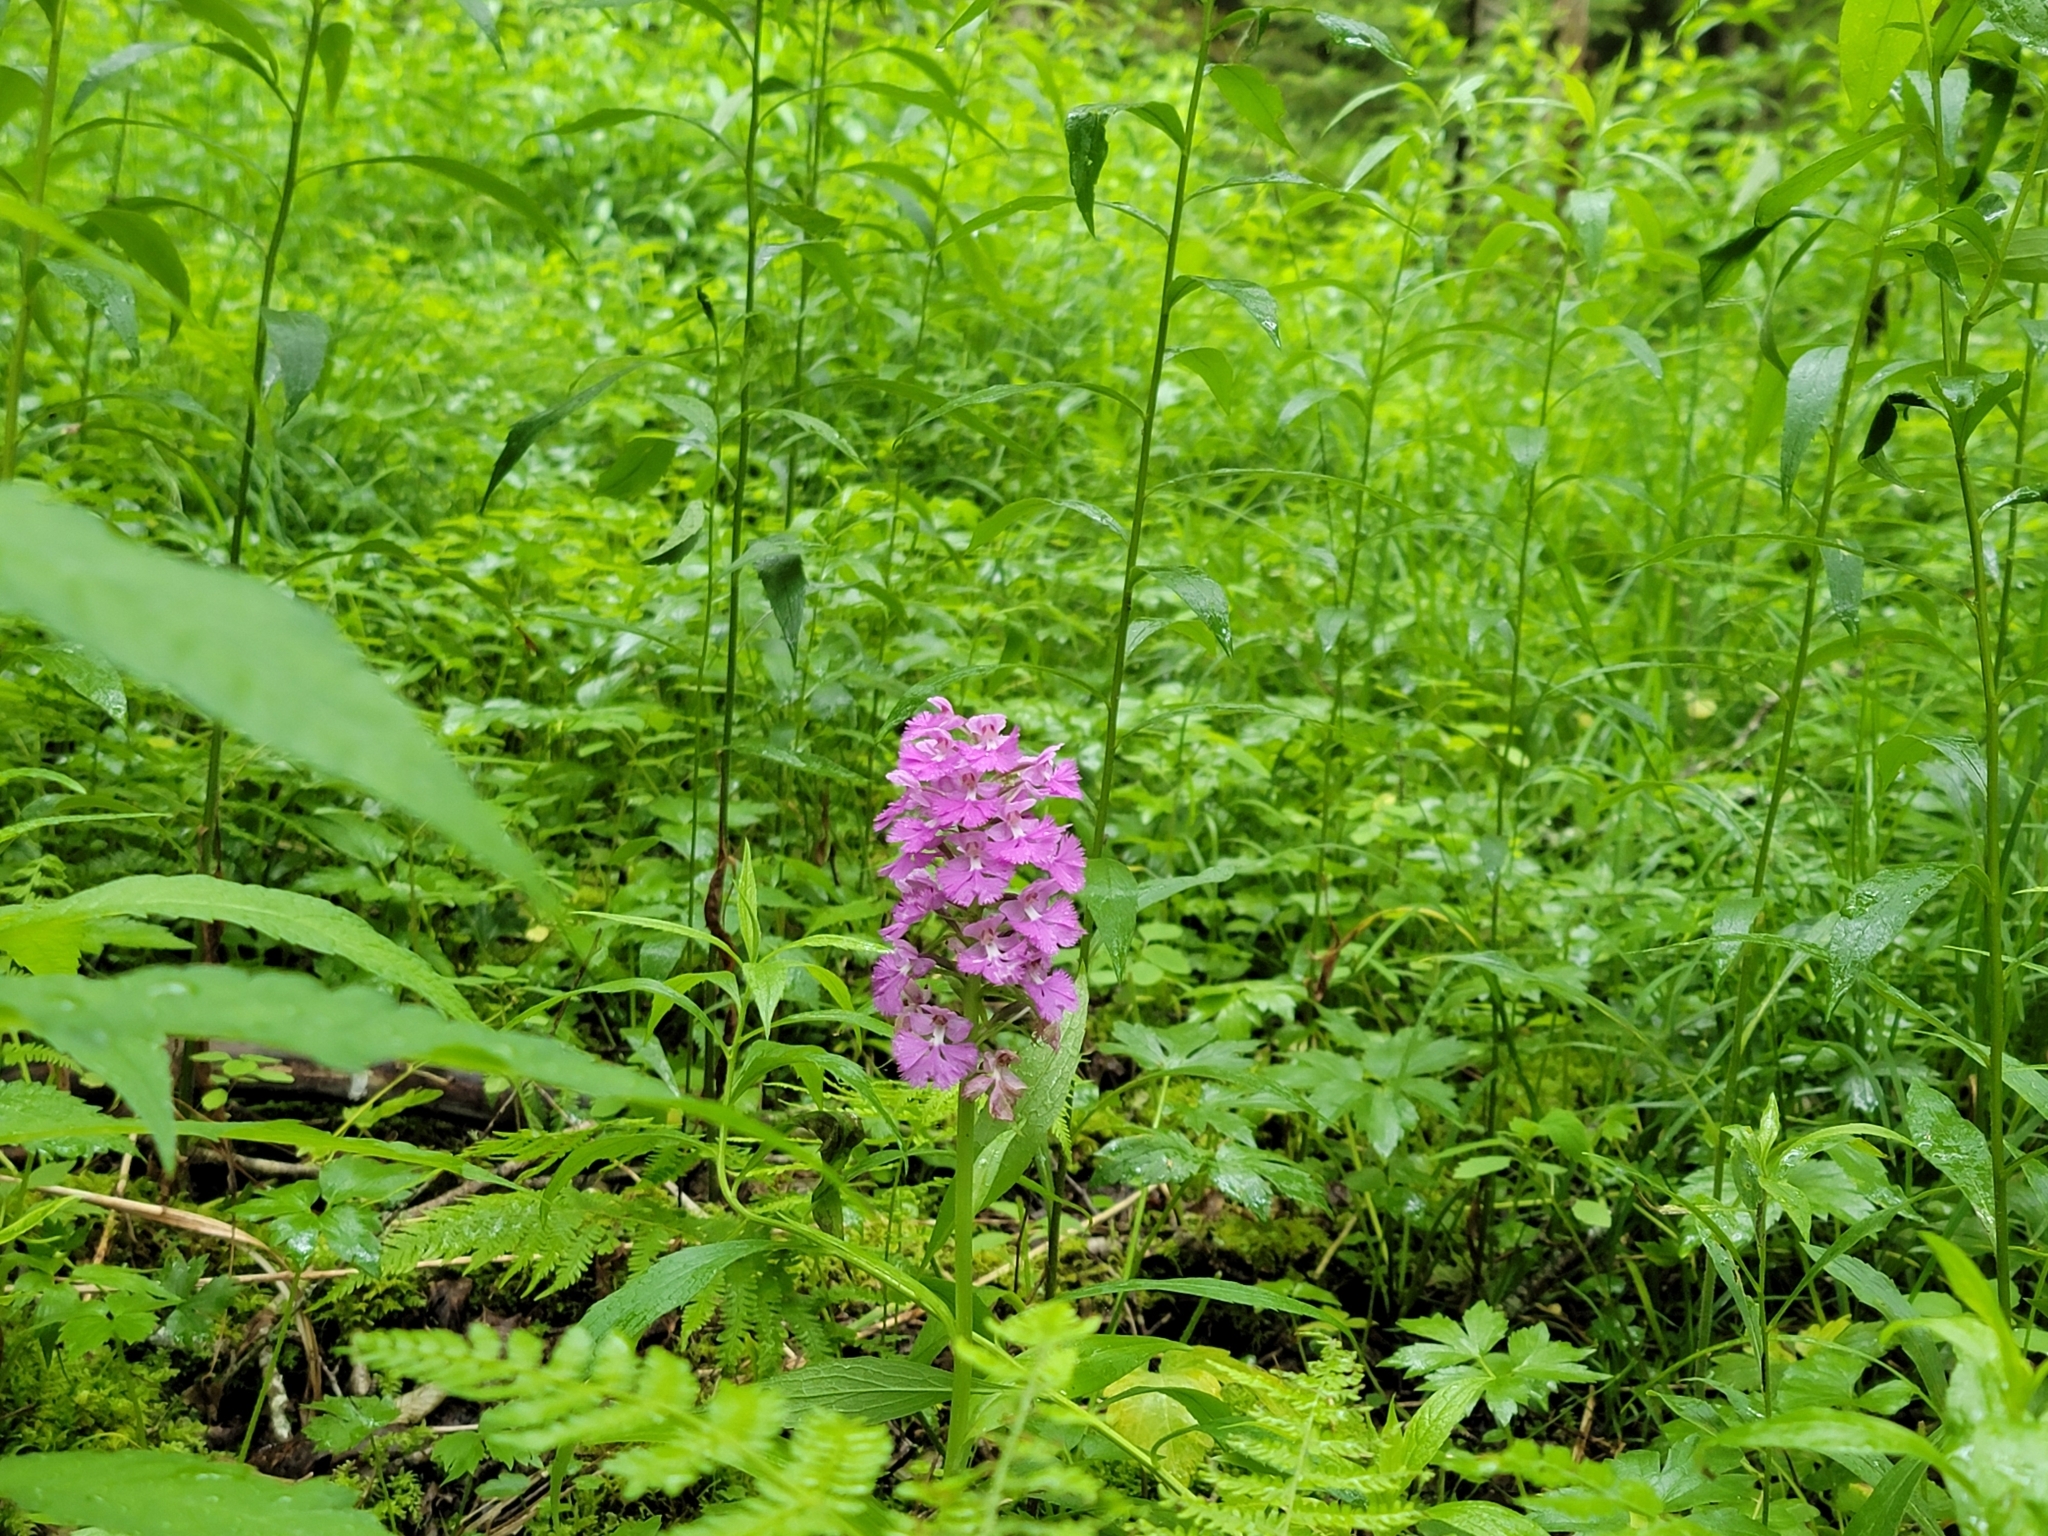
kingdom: Plantae
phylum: Tracheophyta
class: Liliopsida
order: Asparagales
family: Orchidaceae
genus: Platanthera
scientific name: Platanthera grandiflora
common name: Greater purple fringed orchid
